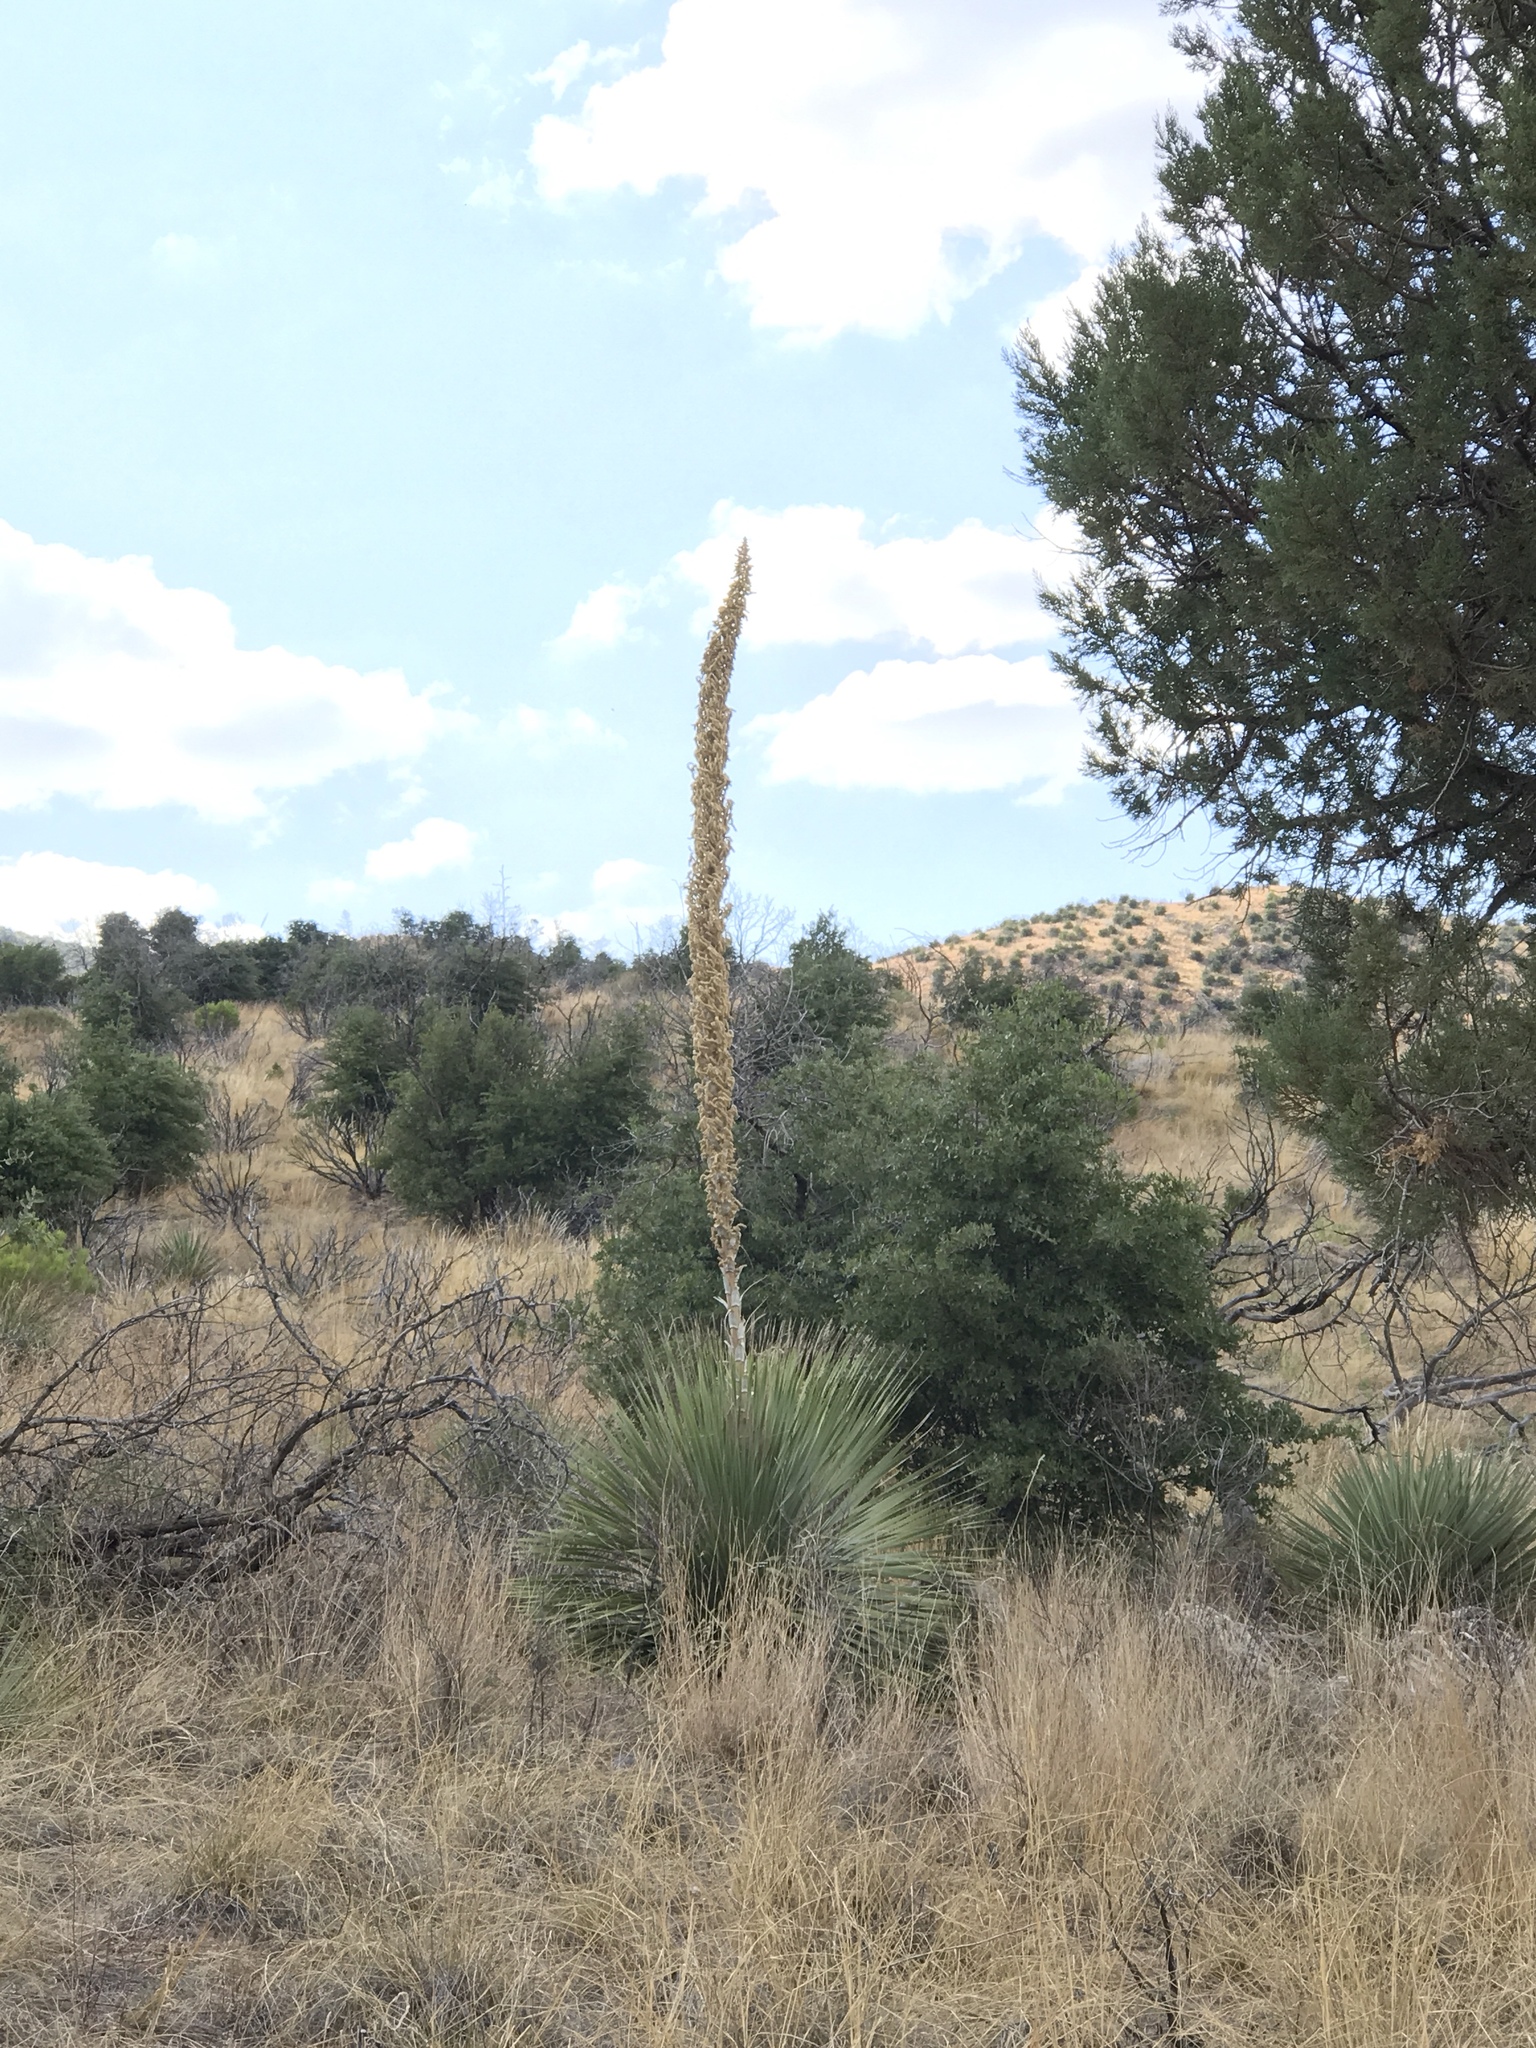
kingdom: Plantae
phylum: Tracheophyta
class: Liliopsida
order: Asparagales
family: Asparagaceae
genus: Dasylirion
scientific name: Dasylirion wheeleri
